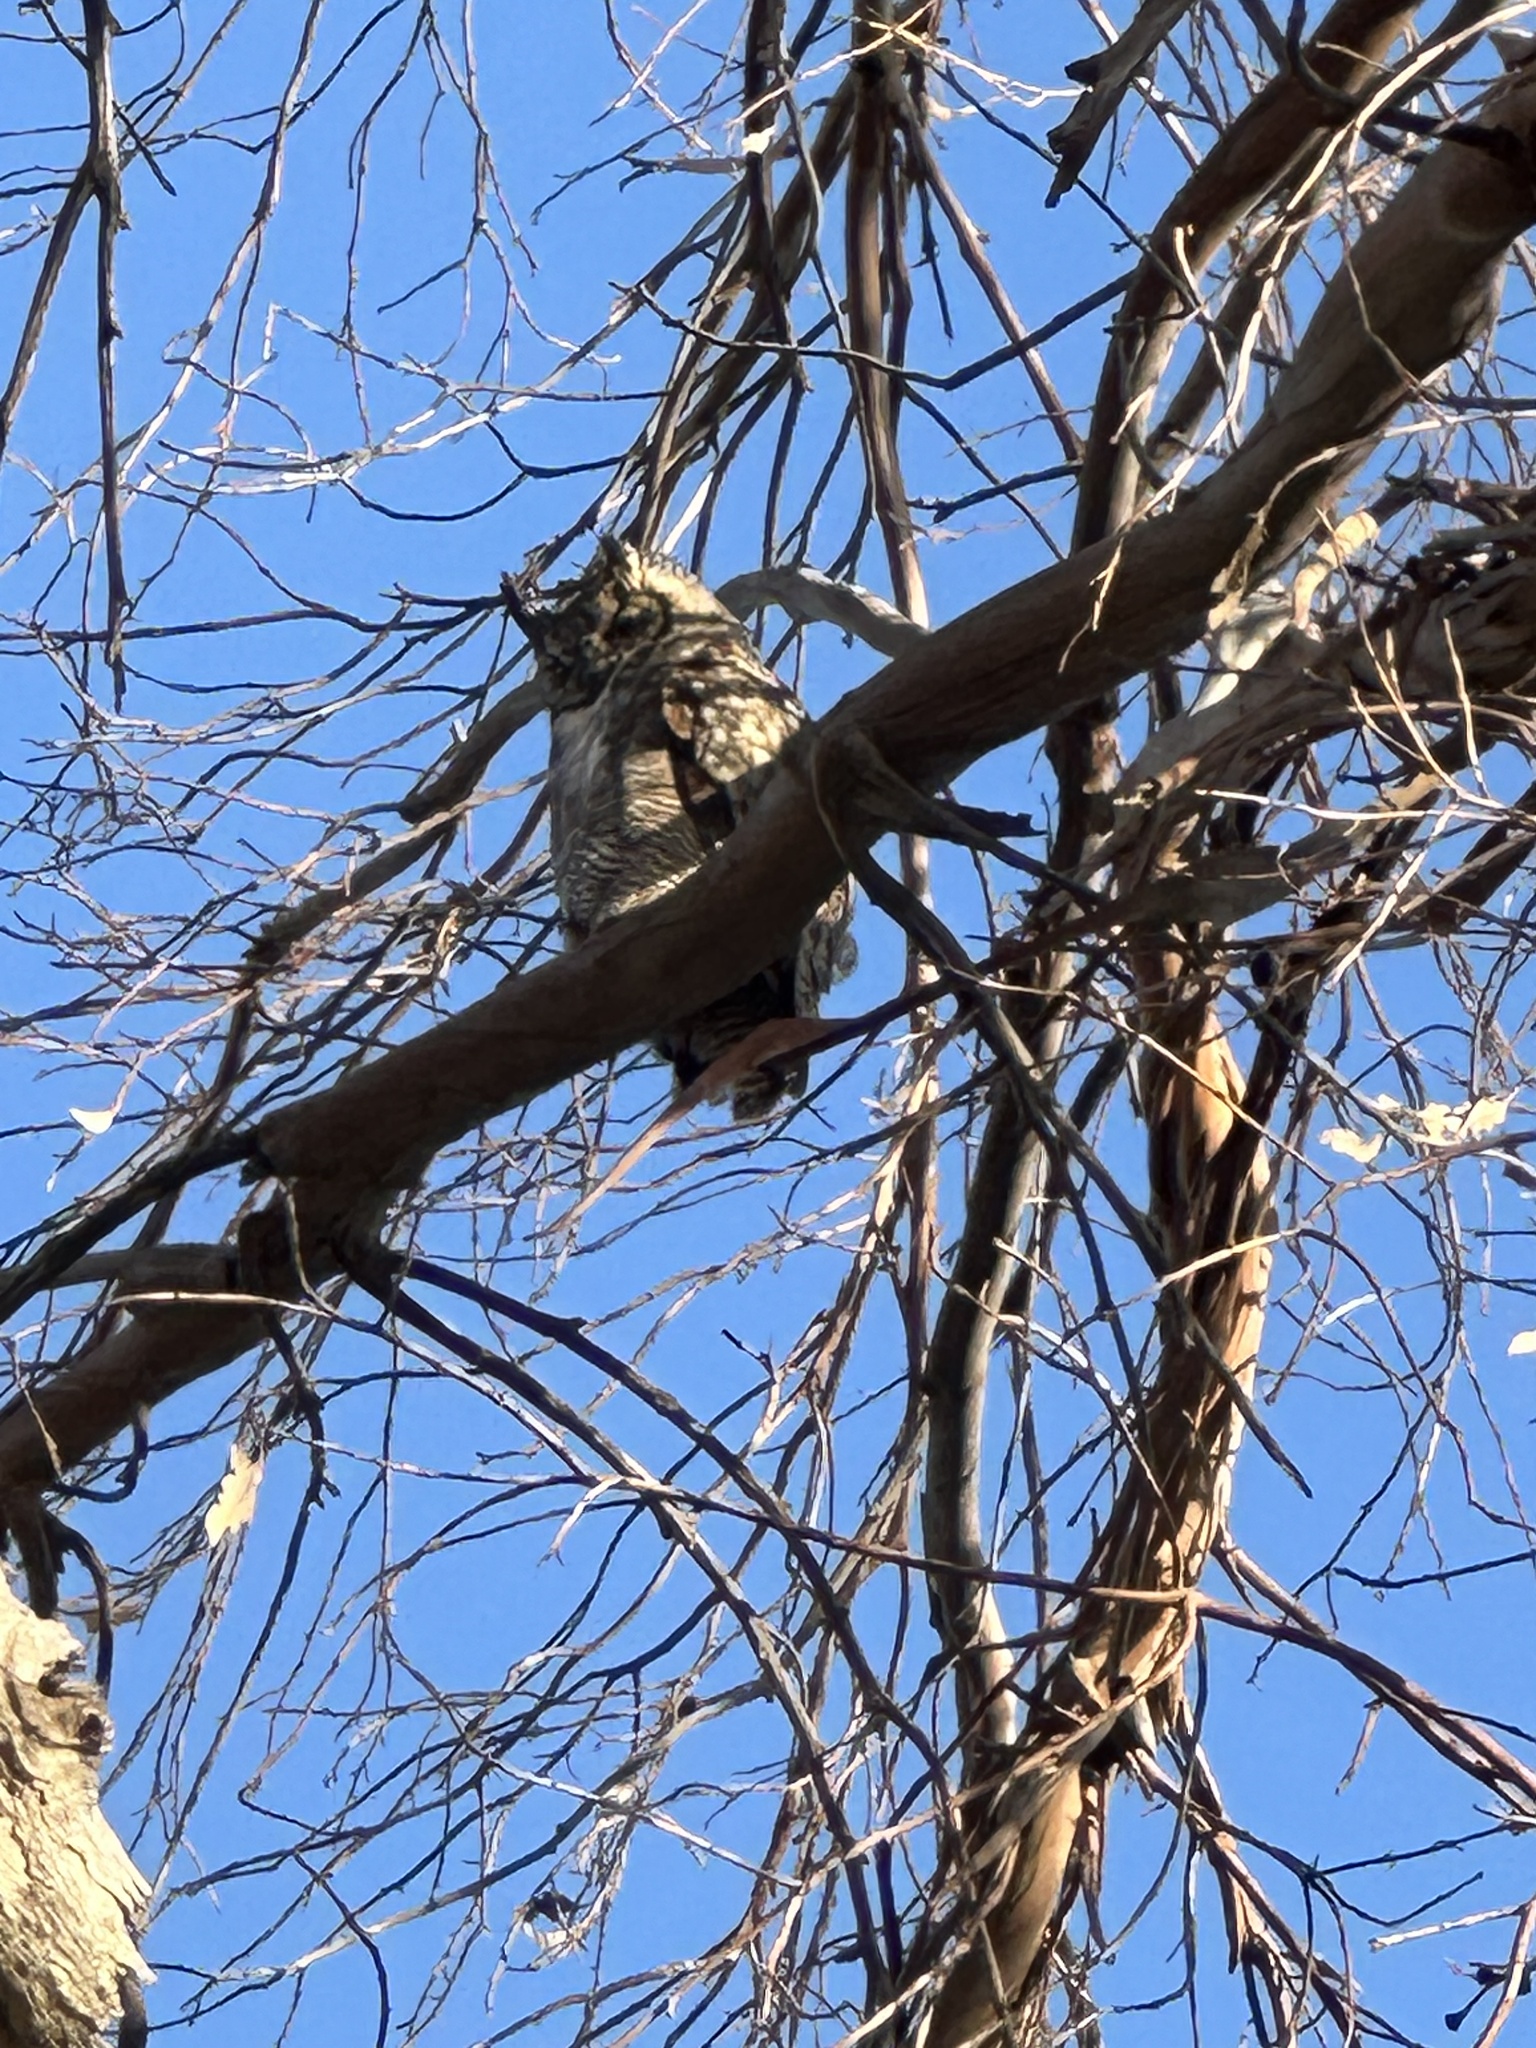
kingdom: Animalia
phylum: Chordata
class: Aves
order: Strigiformes
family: Strigidae
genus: Bubo
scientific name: Bubo virginianus
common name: Great horned owl
